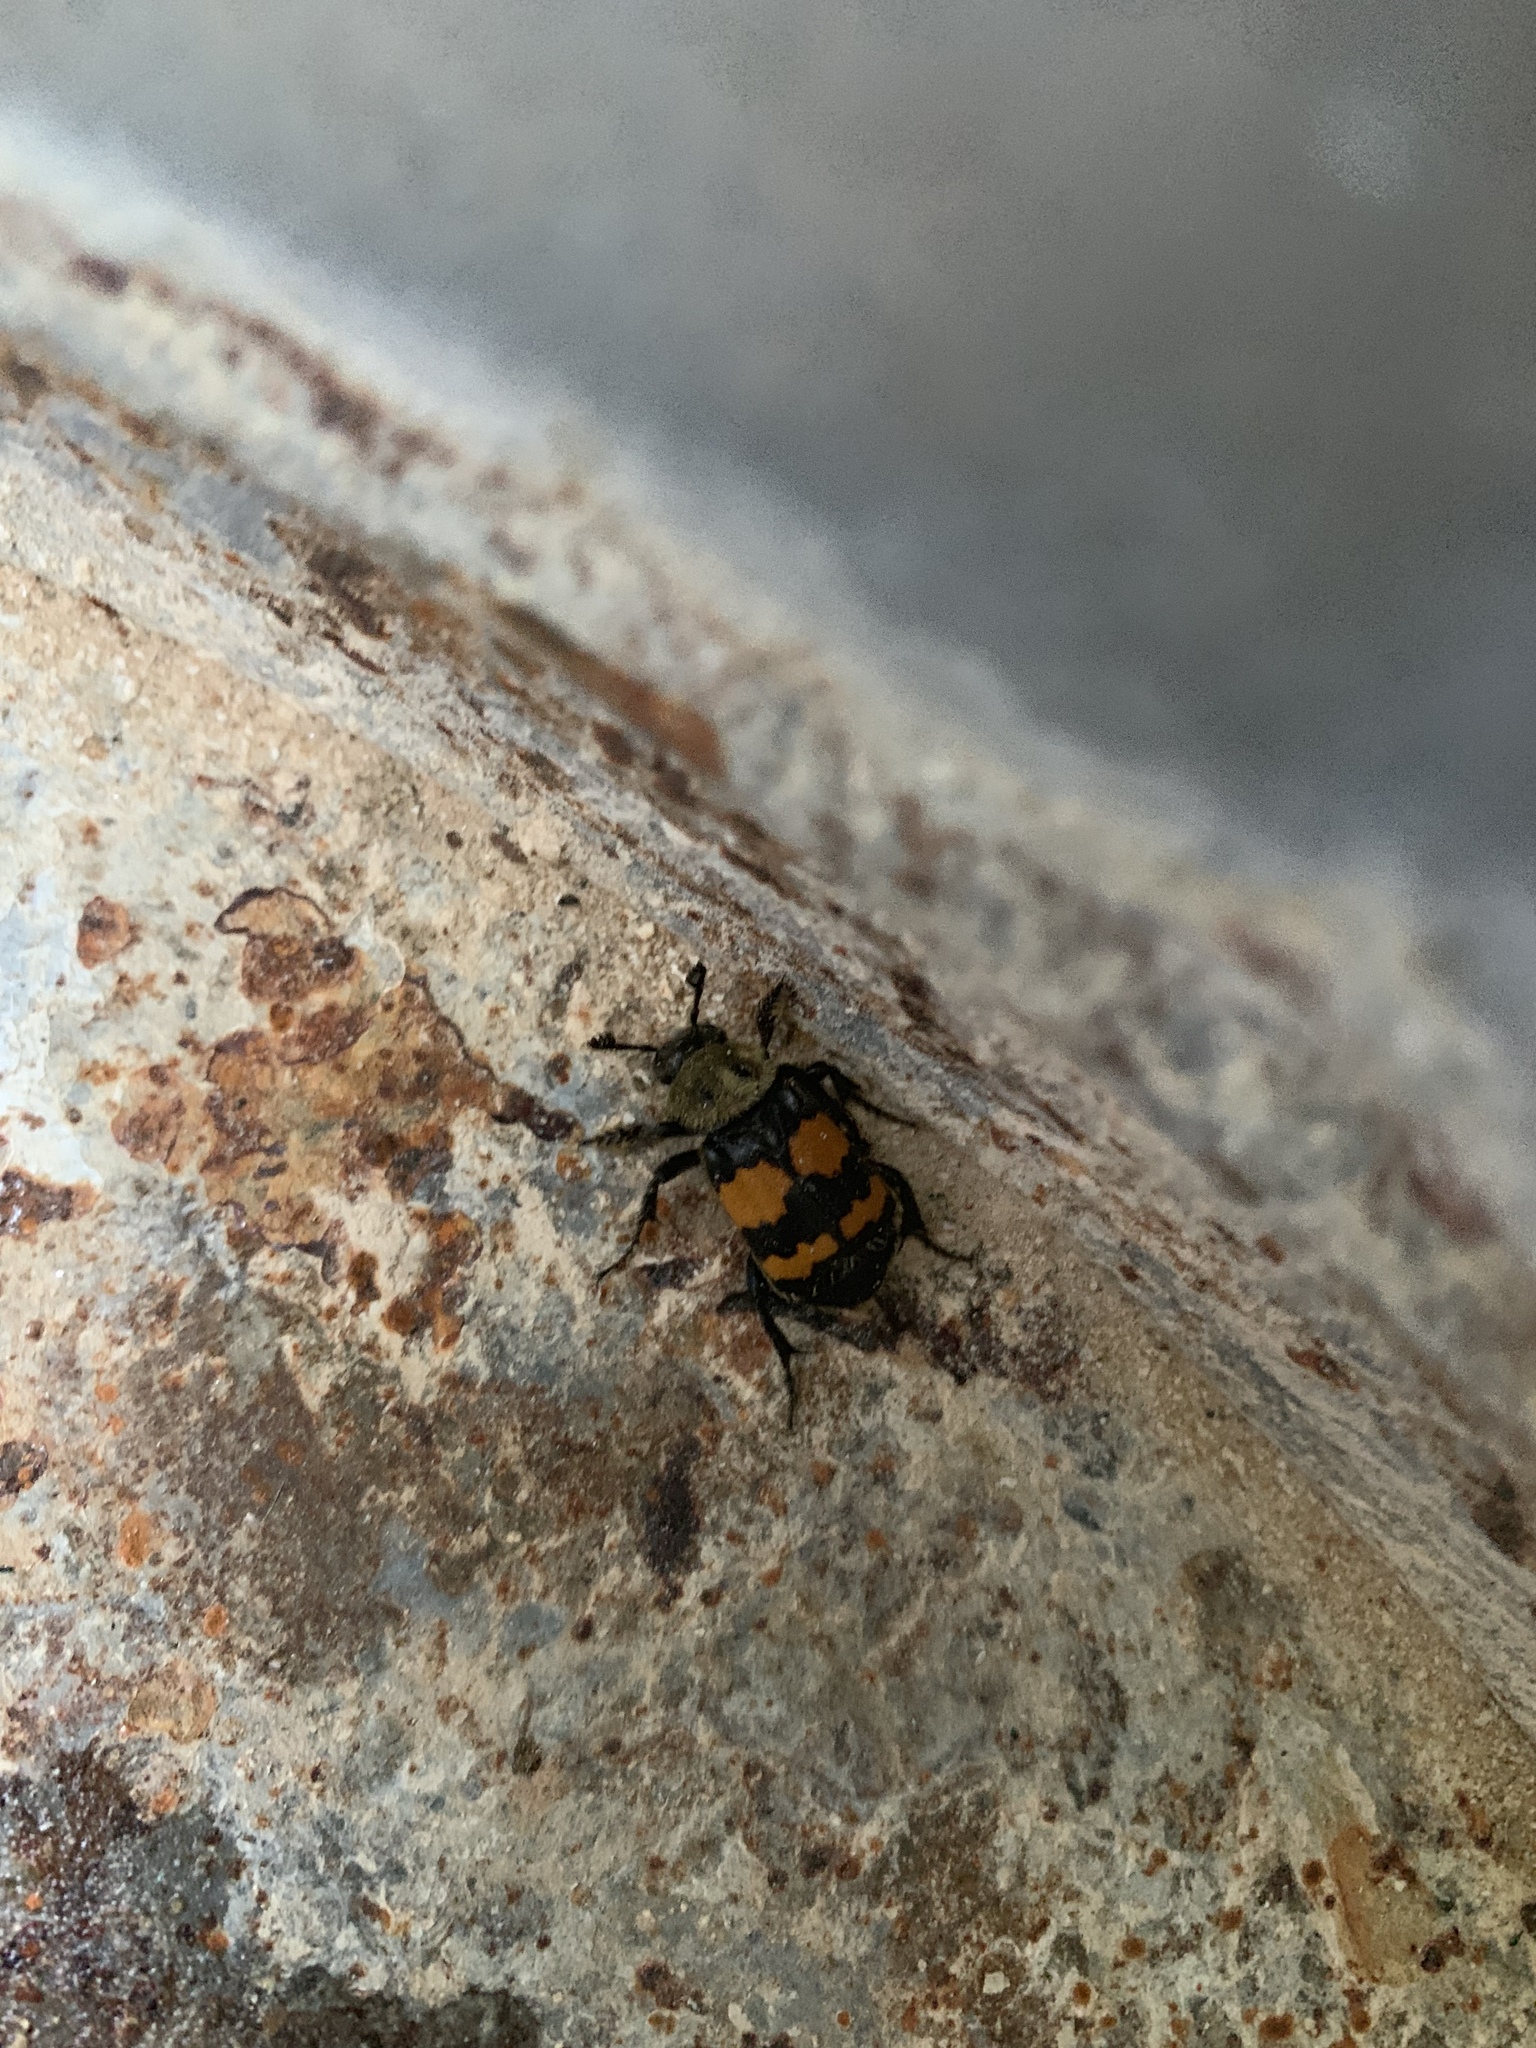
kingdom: Animalia
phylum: Arthropoda
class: Insecta
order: Coleoptera
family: Staphylinidae
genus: Nicrophorus
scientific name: Nicrophorus tomentosus
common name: Tomentose burying beetle
